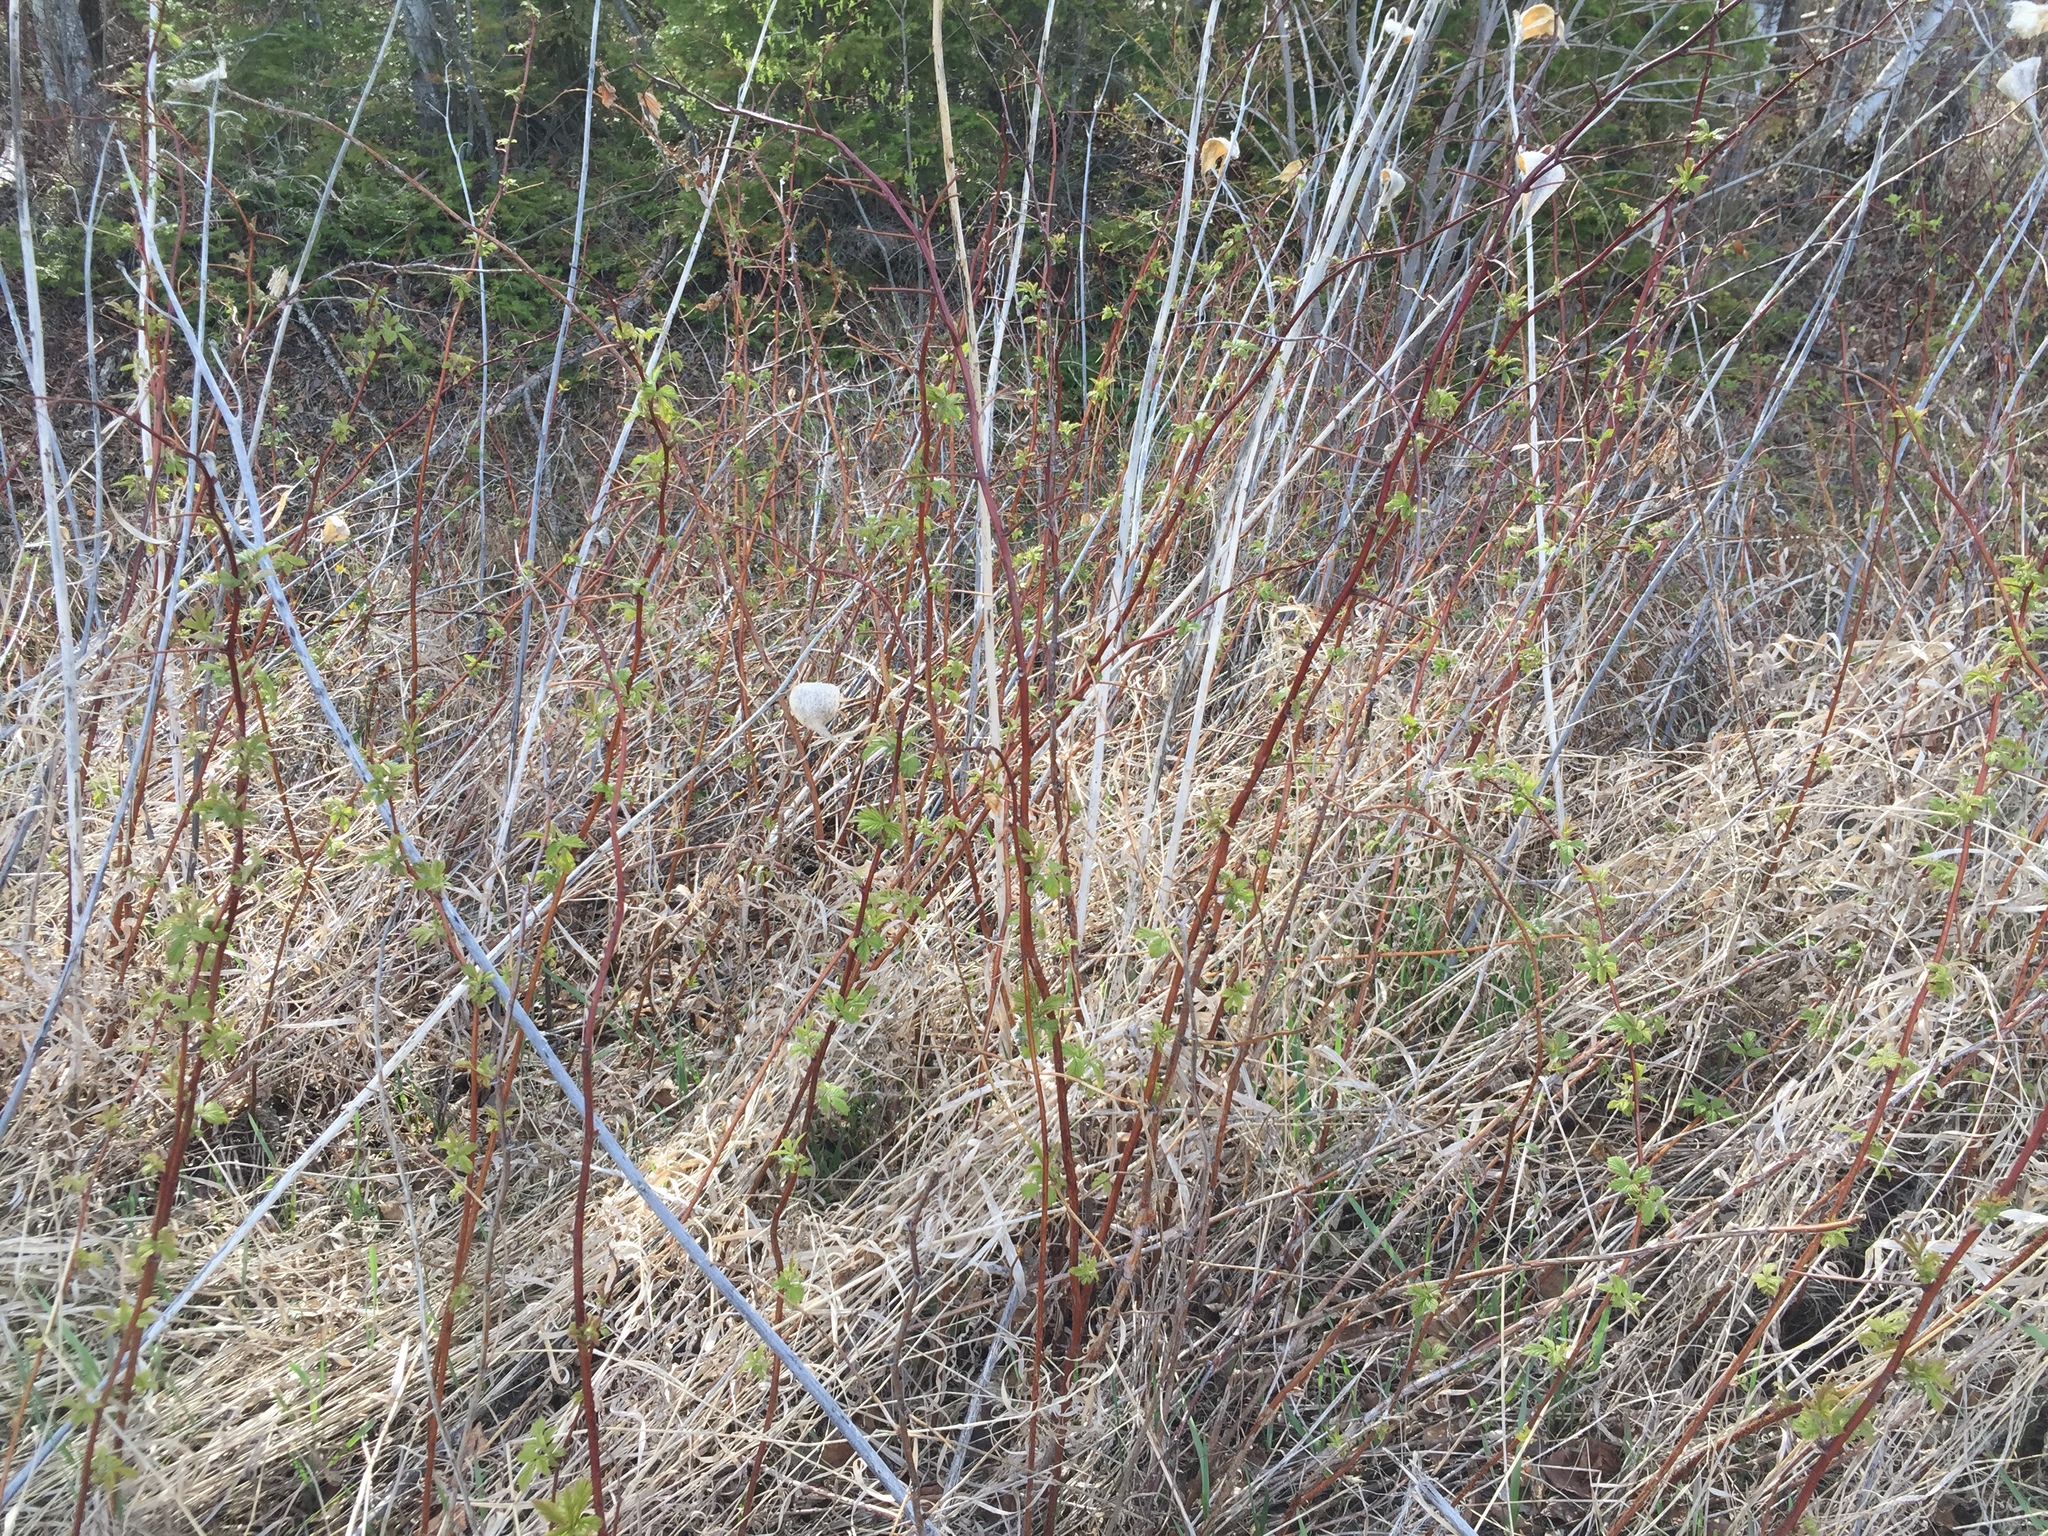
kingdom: Plantae
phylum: Tracheophyta
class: Magnoliopsida
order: Rosales
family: Rosaceae
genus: Rubus
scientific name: Rubus idaeus
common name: Raspberry
